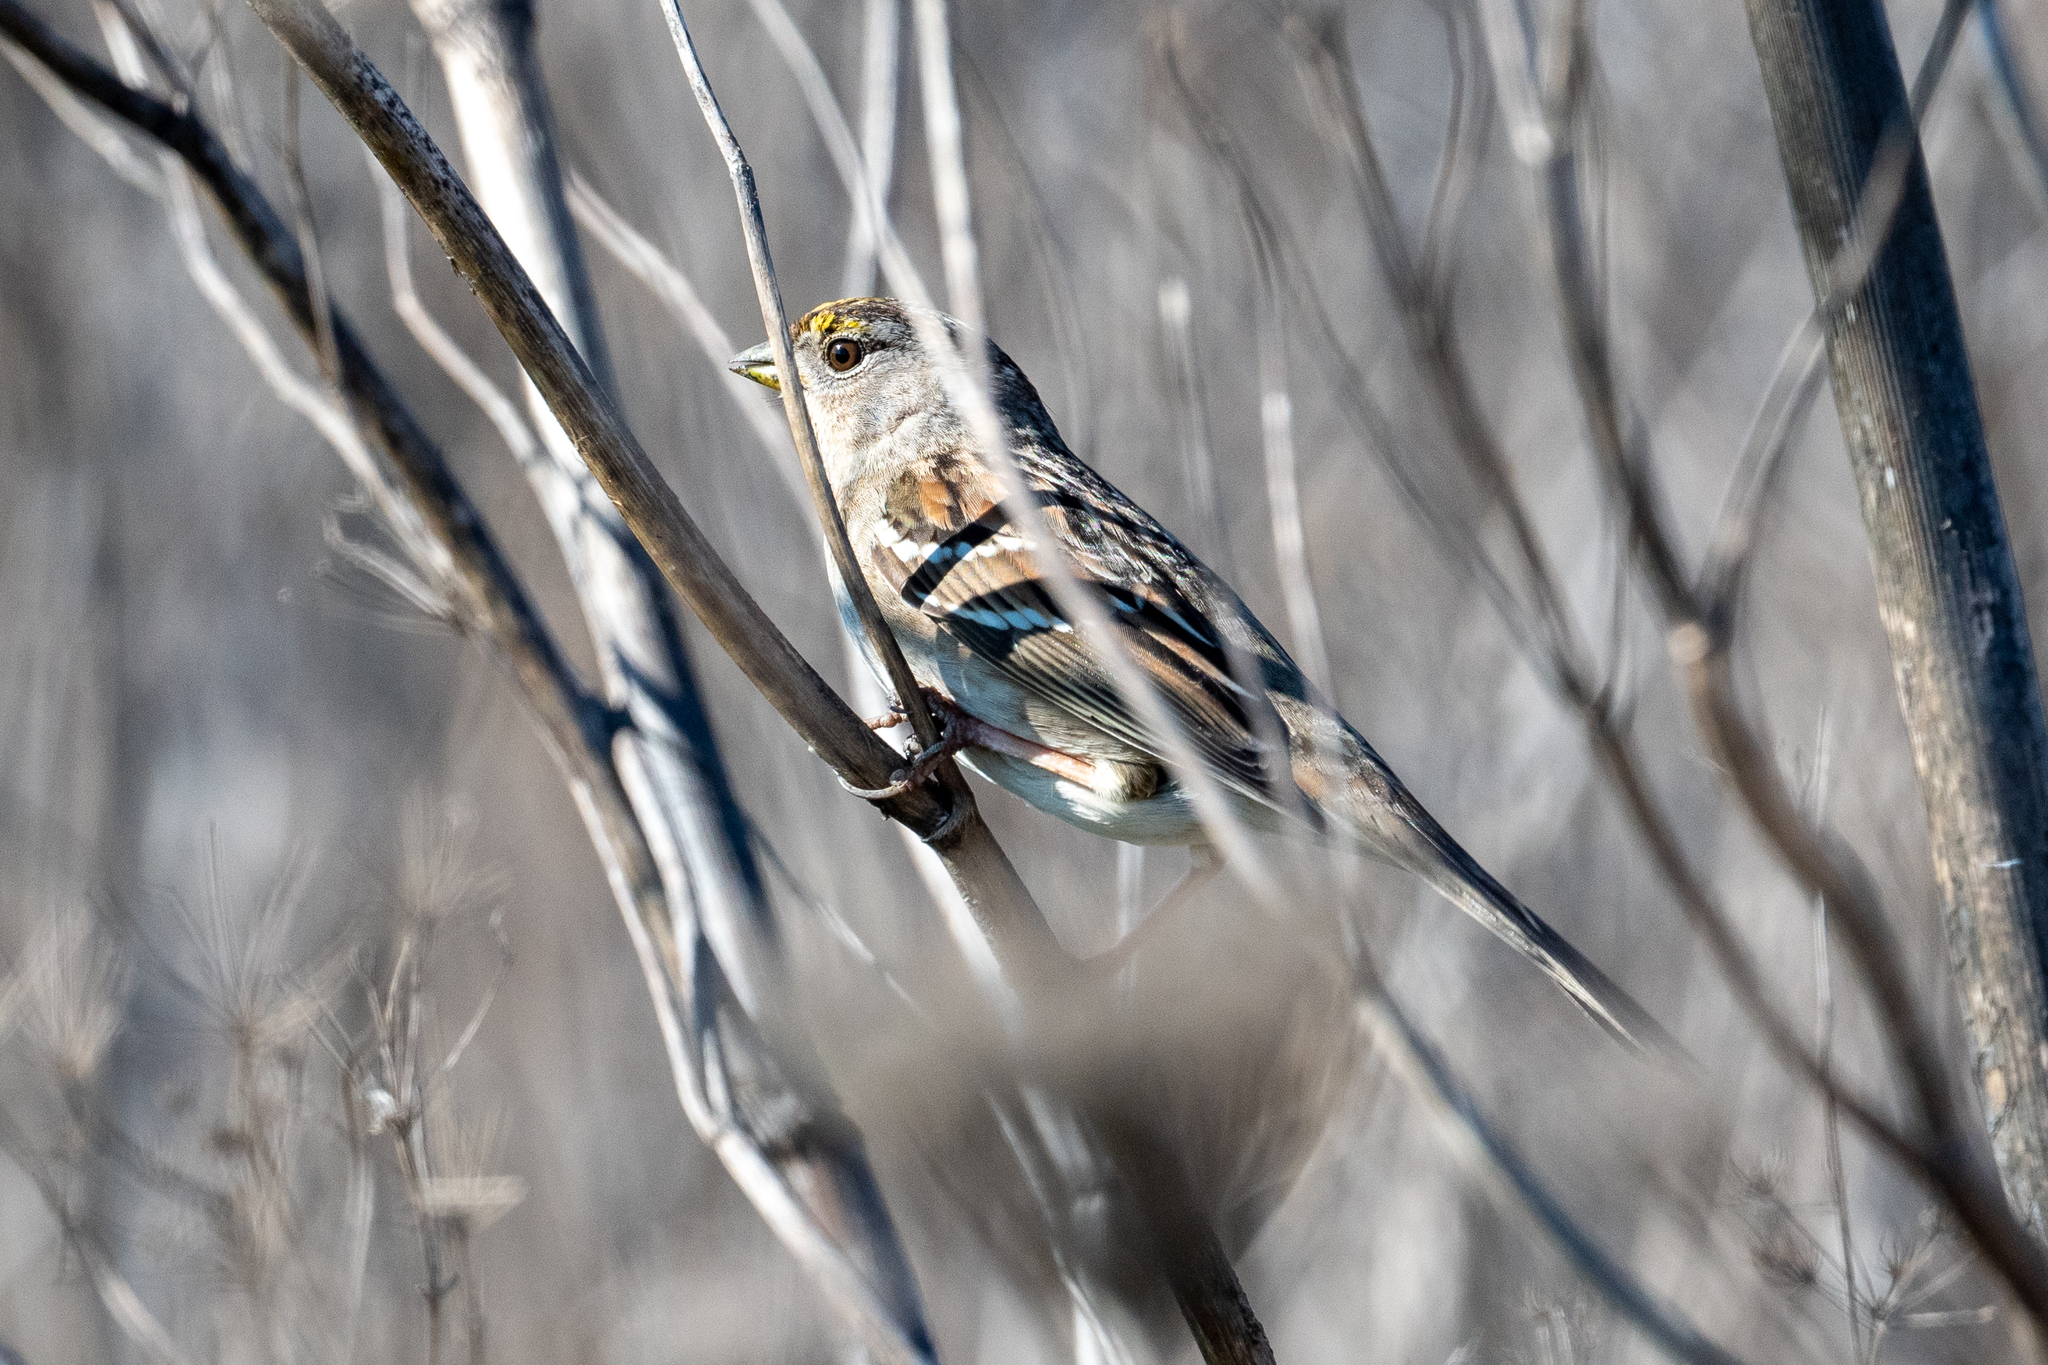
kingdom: Animalia
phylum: Chordata
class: Aves
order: Passeriformes
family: Passerellidae
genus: Zonotrichia
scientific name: Zonotrichia atricapilla
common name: Golden-crowned sparrow
